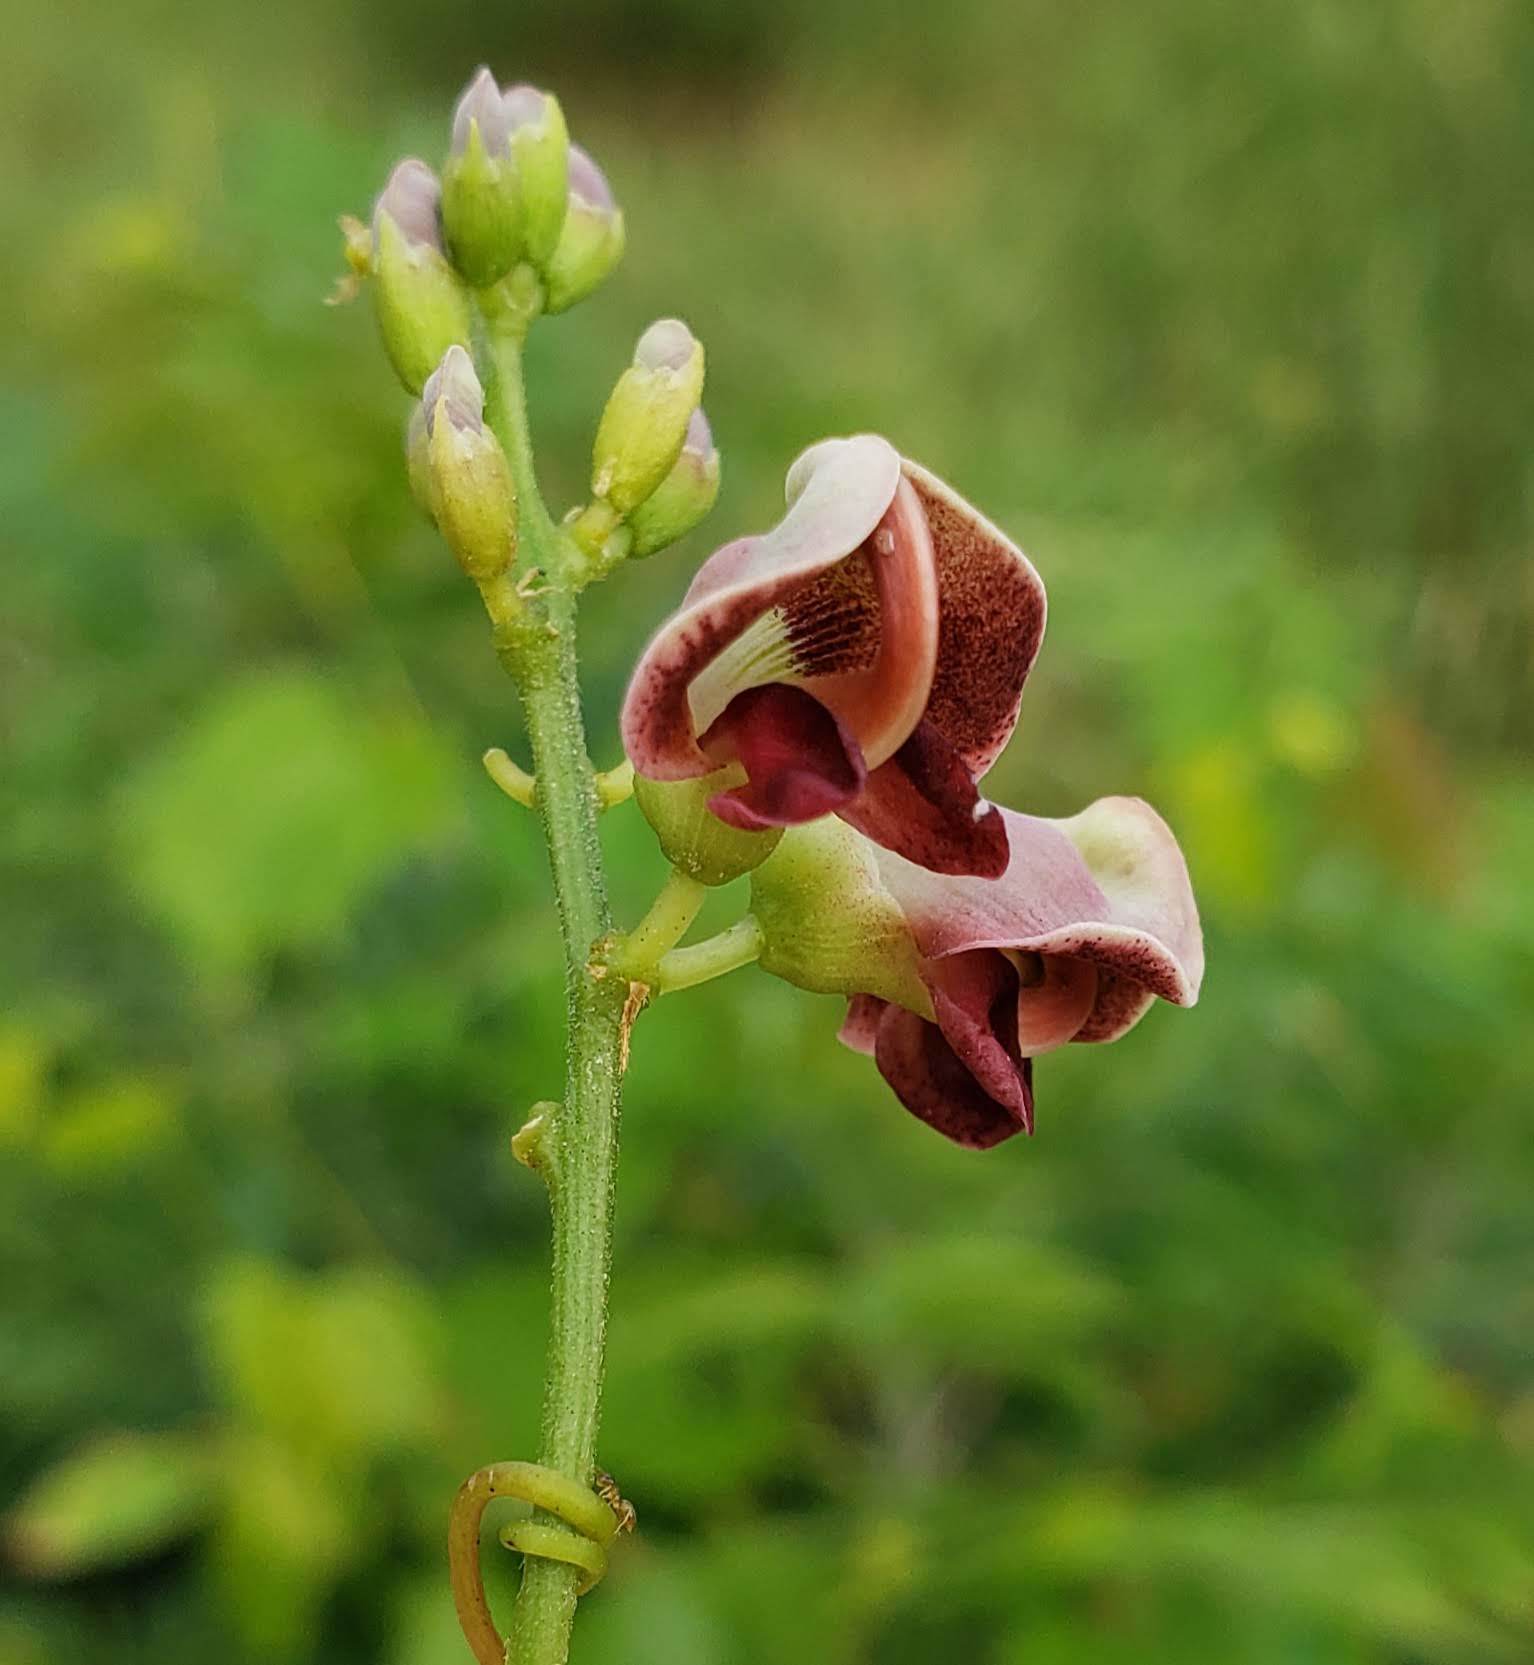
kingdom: Plantae
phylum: Tracheophyta
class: Magnoliopsida
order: Fabales
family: Fabaceae
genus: Apios
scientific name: Apios americana
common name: American potato-bean
